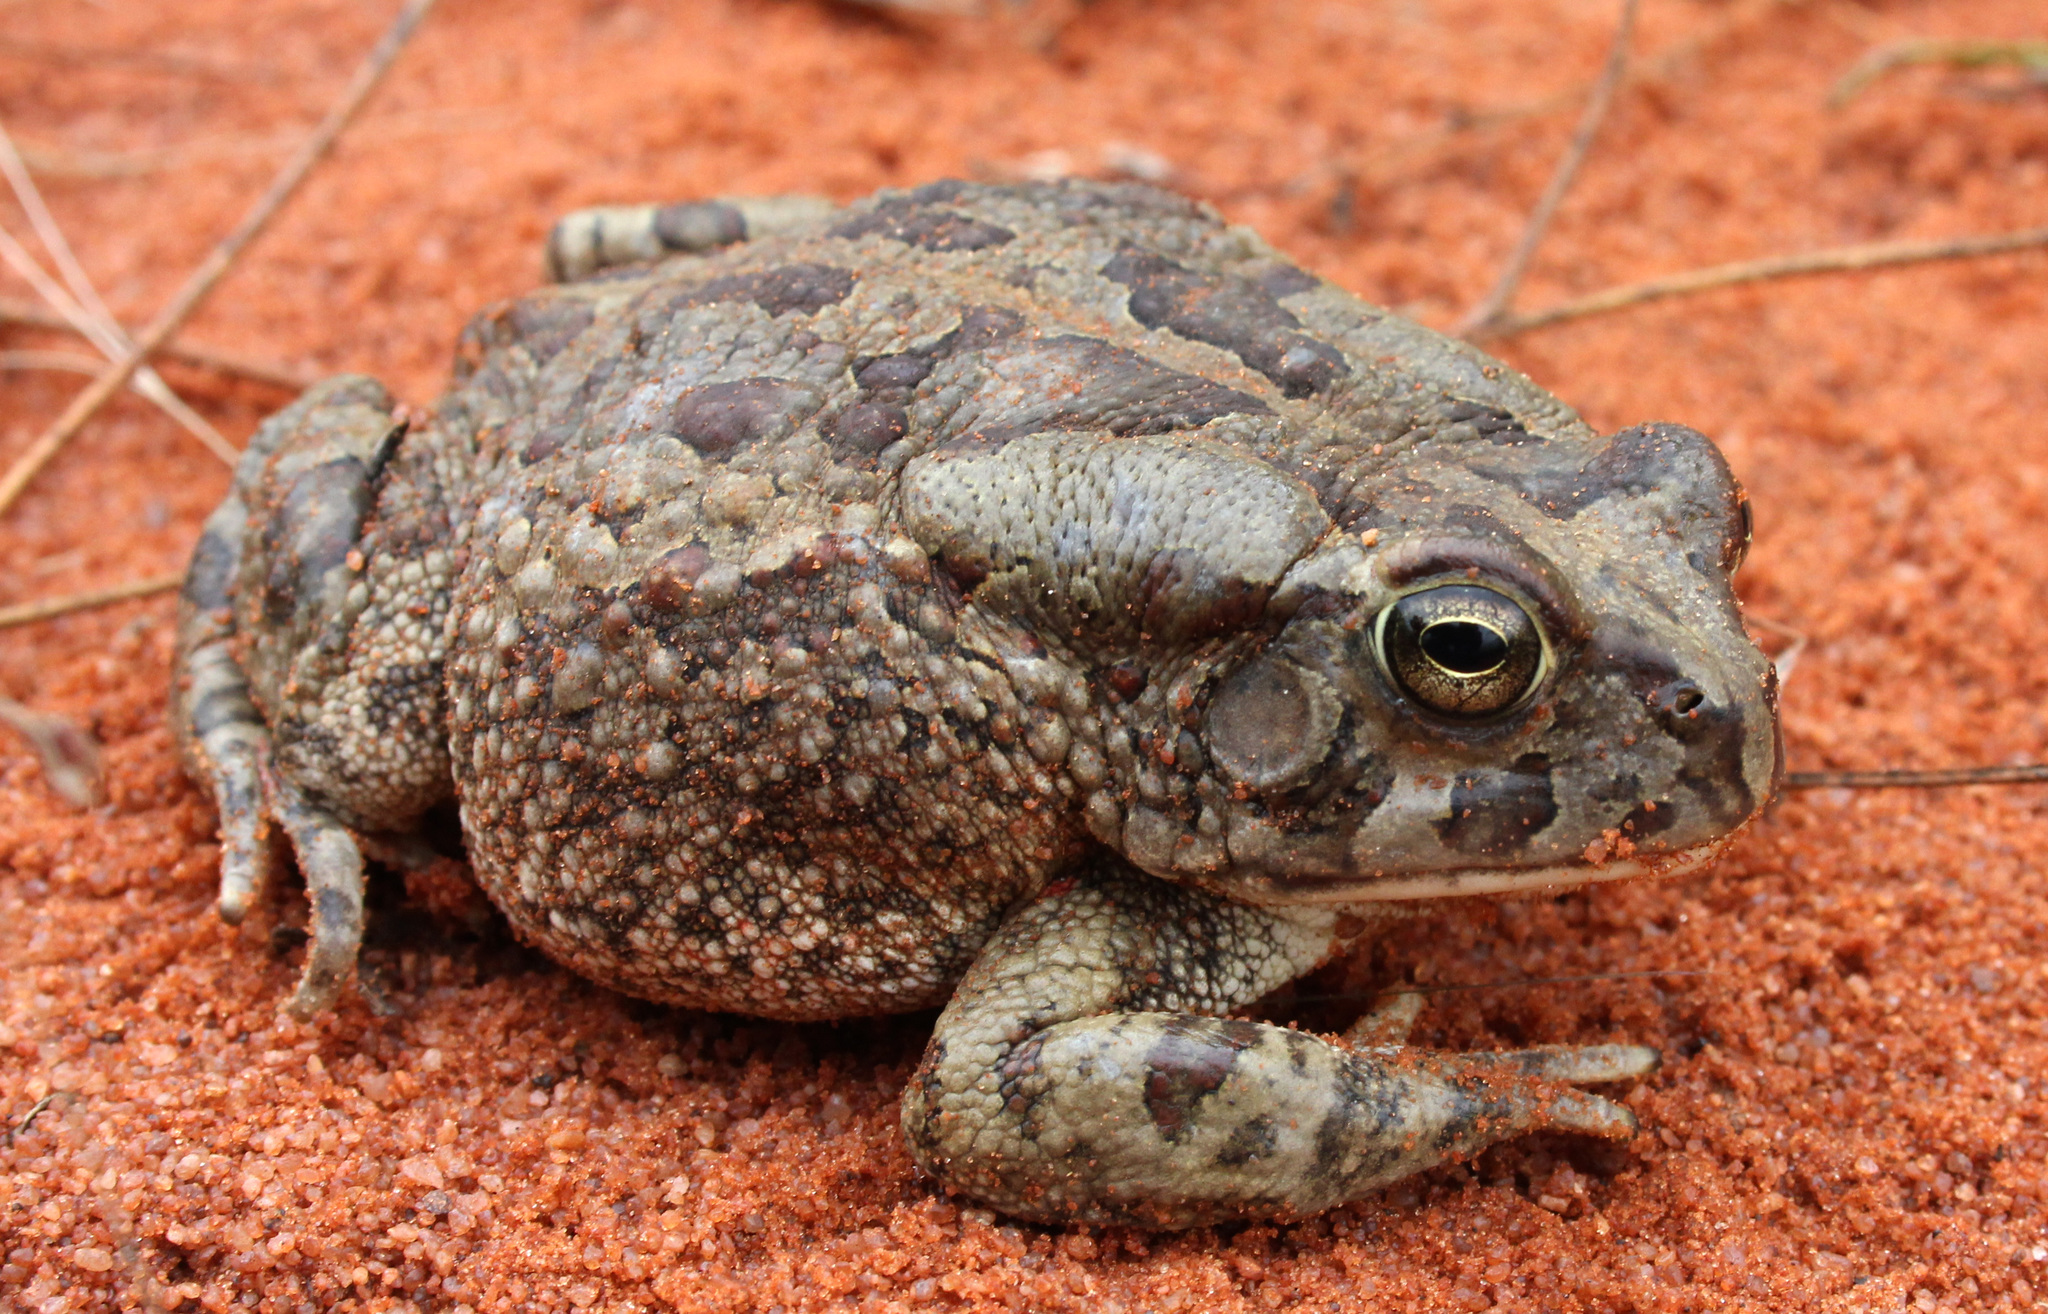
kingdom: Animalia
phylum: Chordata
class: Amphibia
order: Anura
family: Bufonidae
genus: Sclerophrys
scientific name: Sclerophrys poweri
